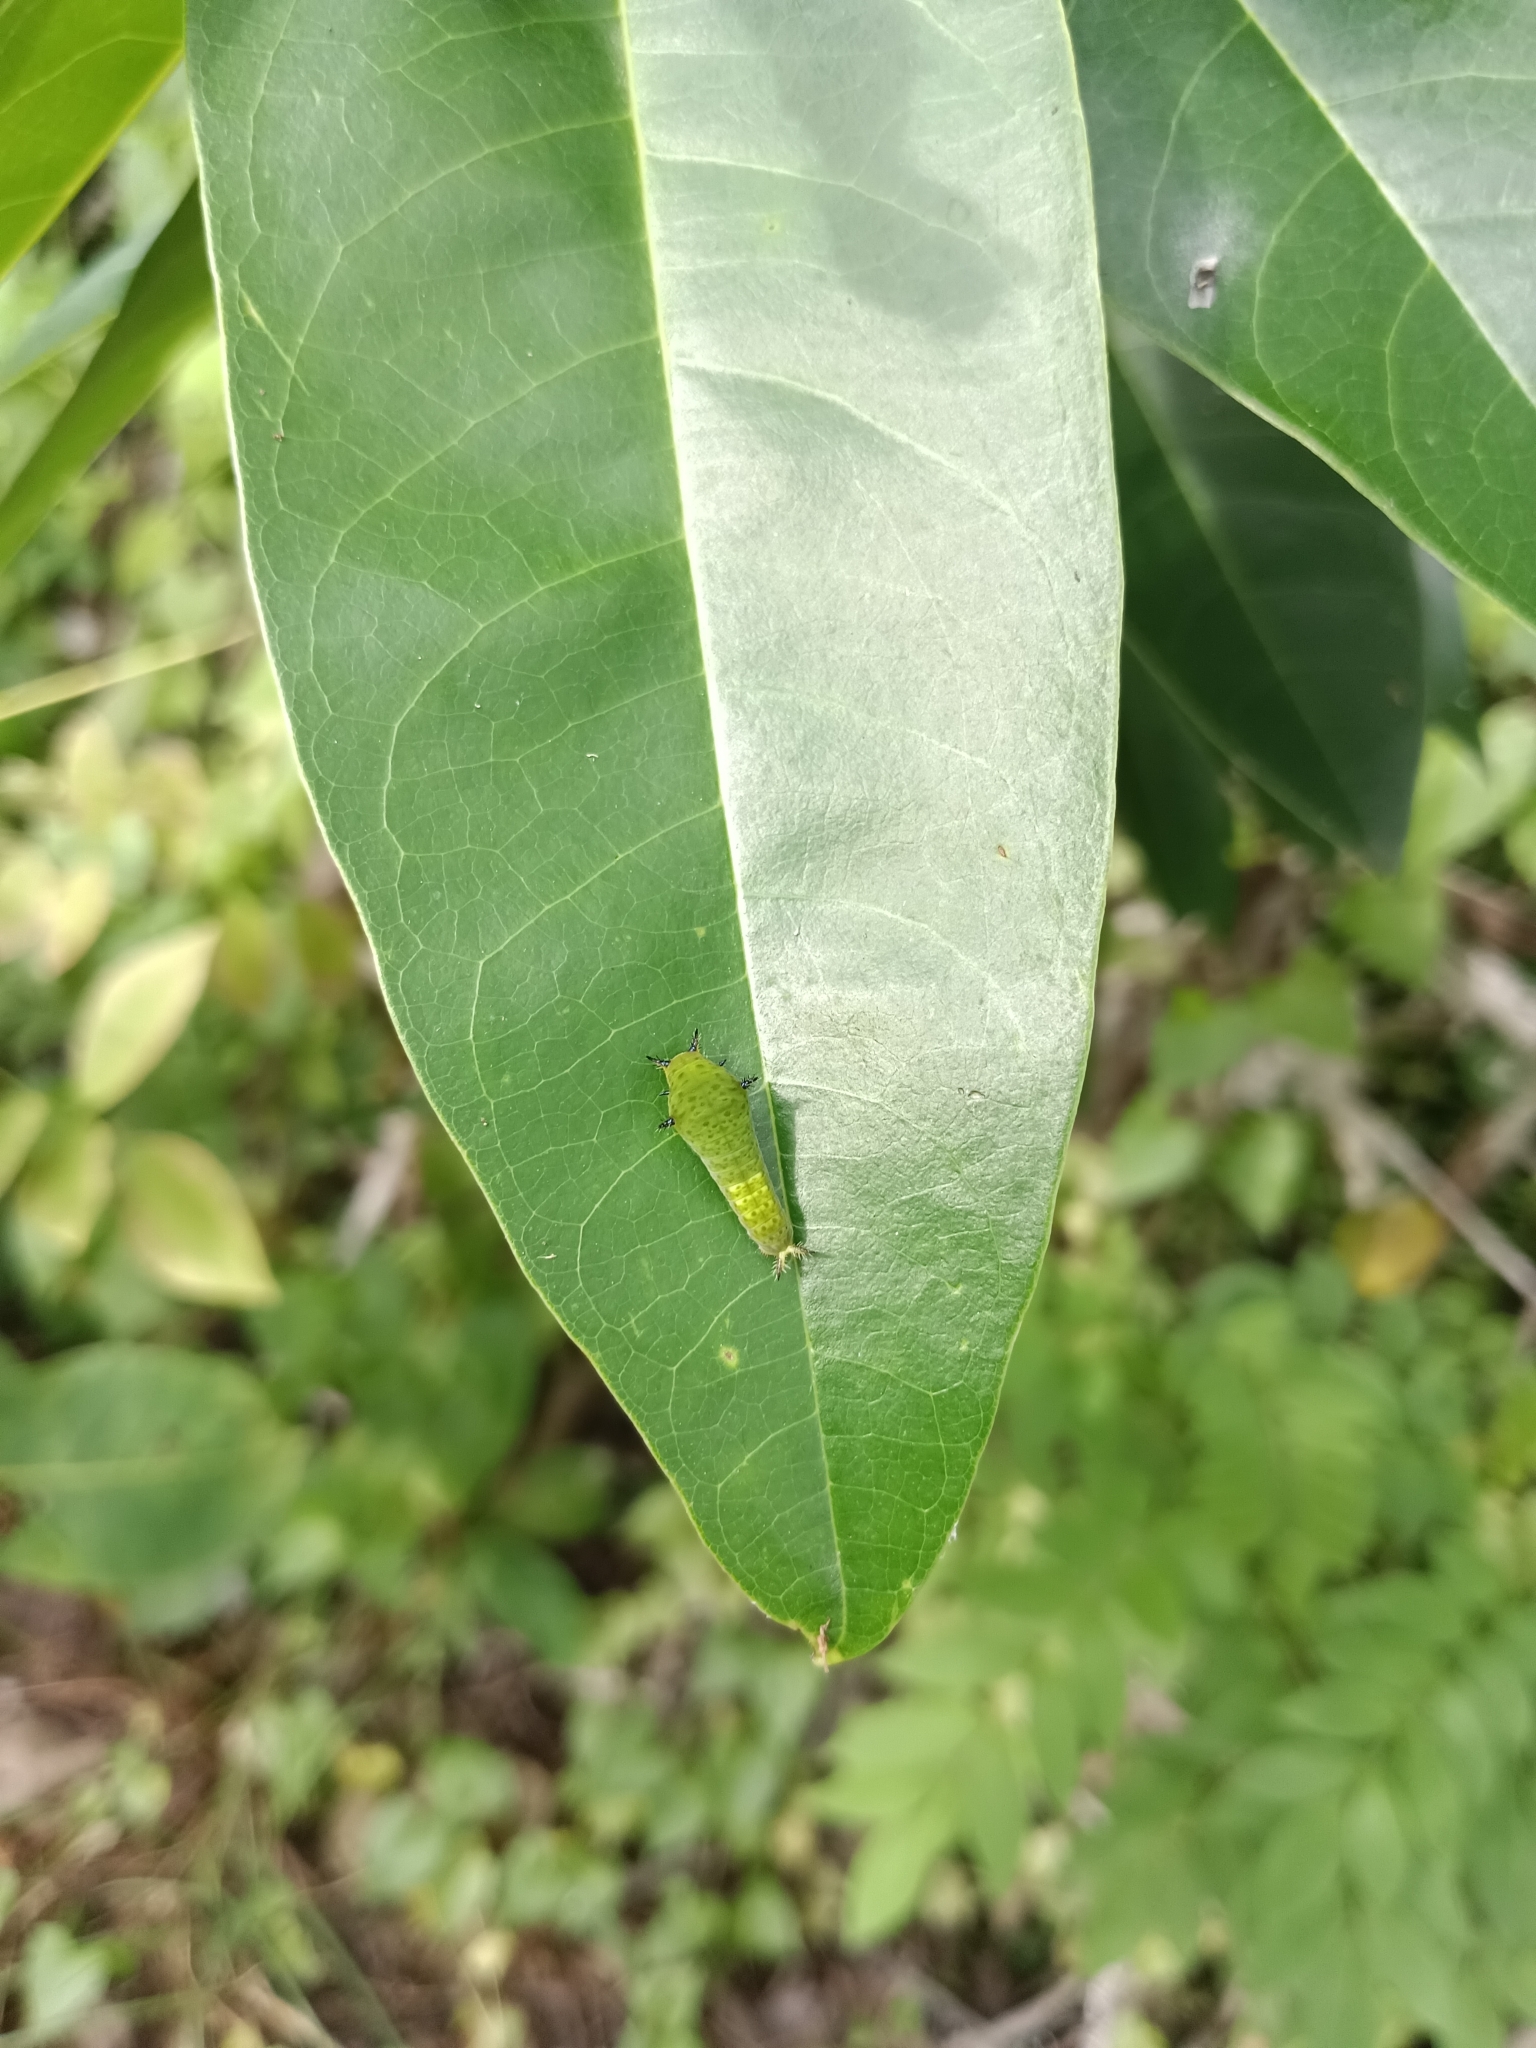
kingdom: Animalia
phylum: Arthropoda
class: Insecta
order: Lepidoptera
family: Papilionidae
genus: Graphium
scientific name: Graphium agamemnon
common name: Tailed jay
